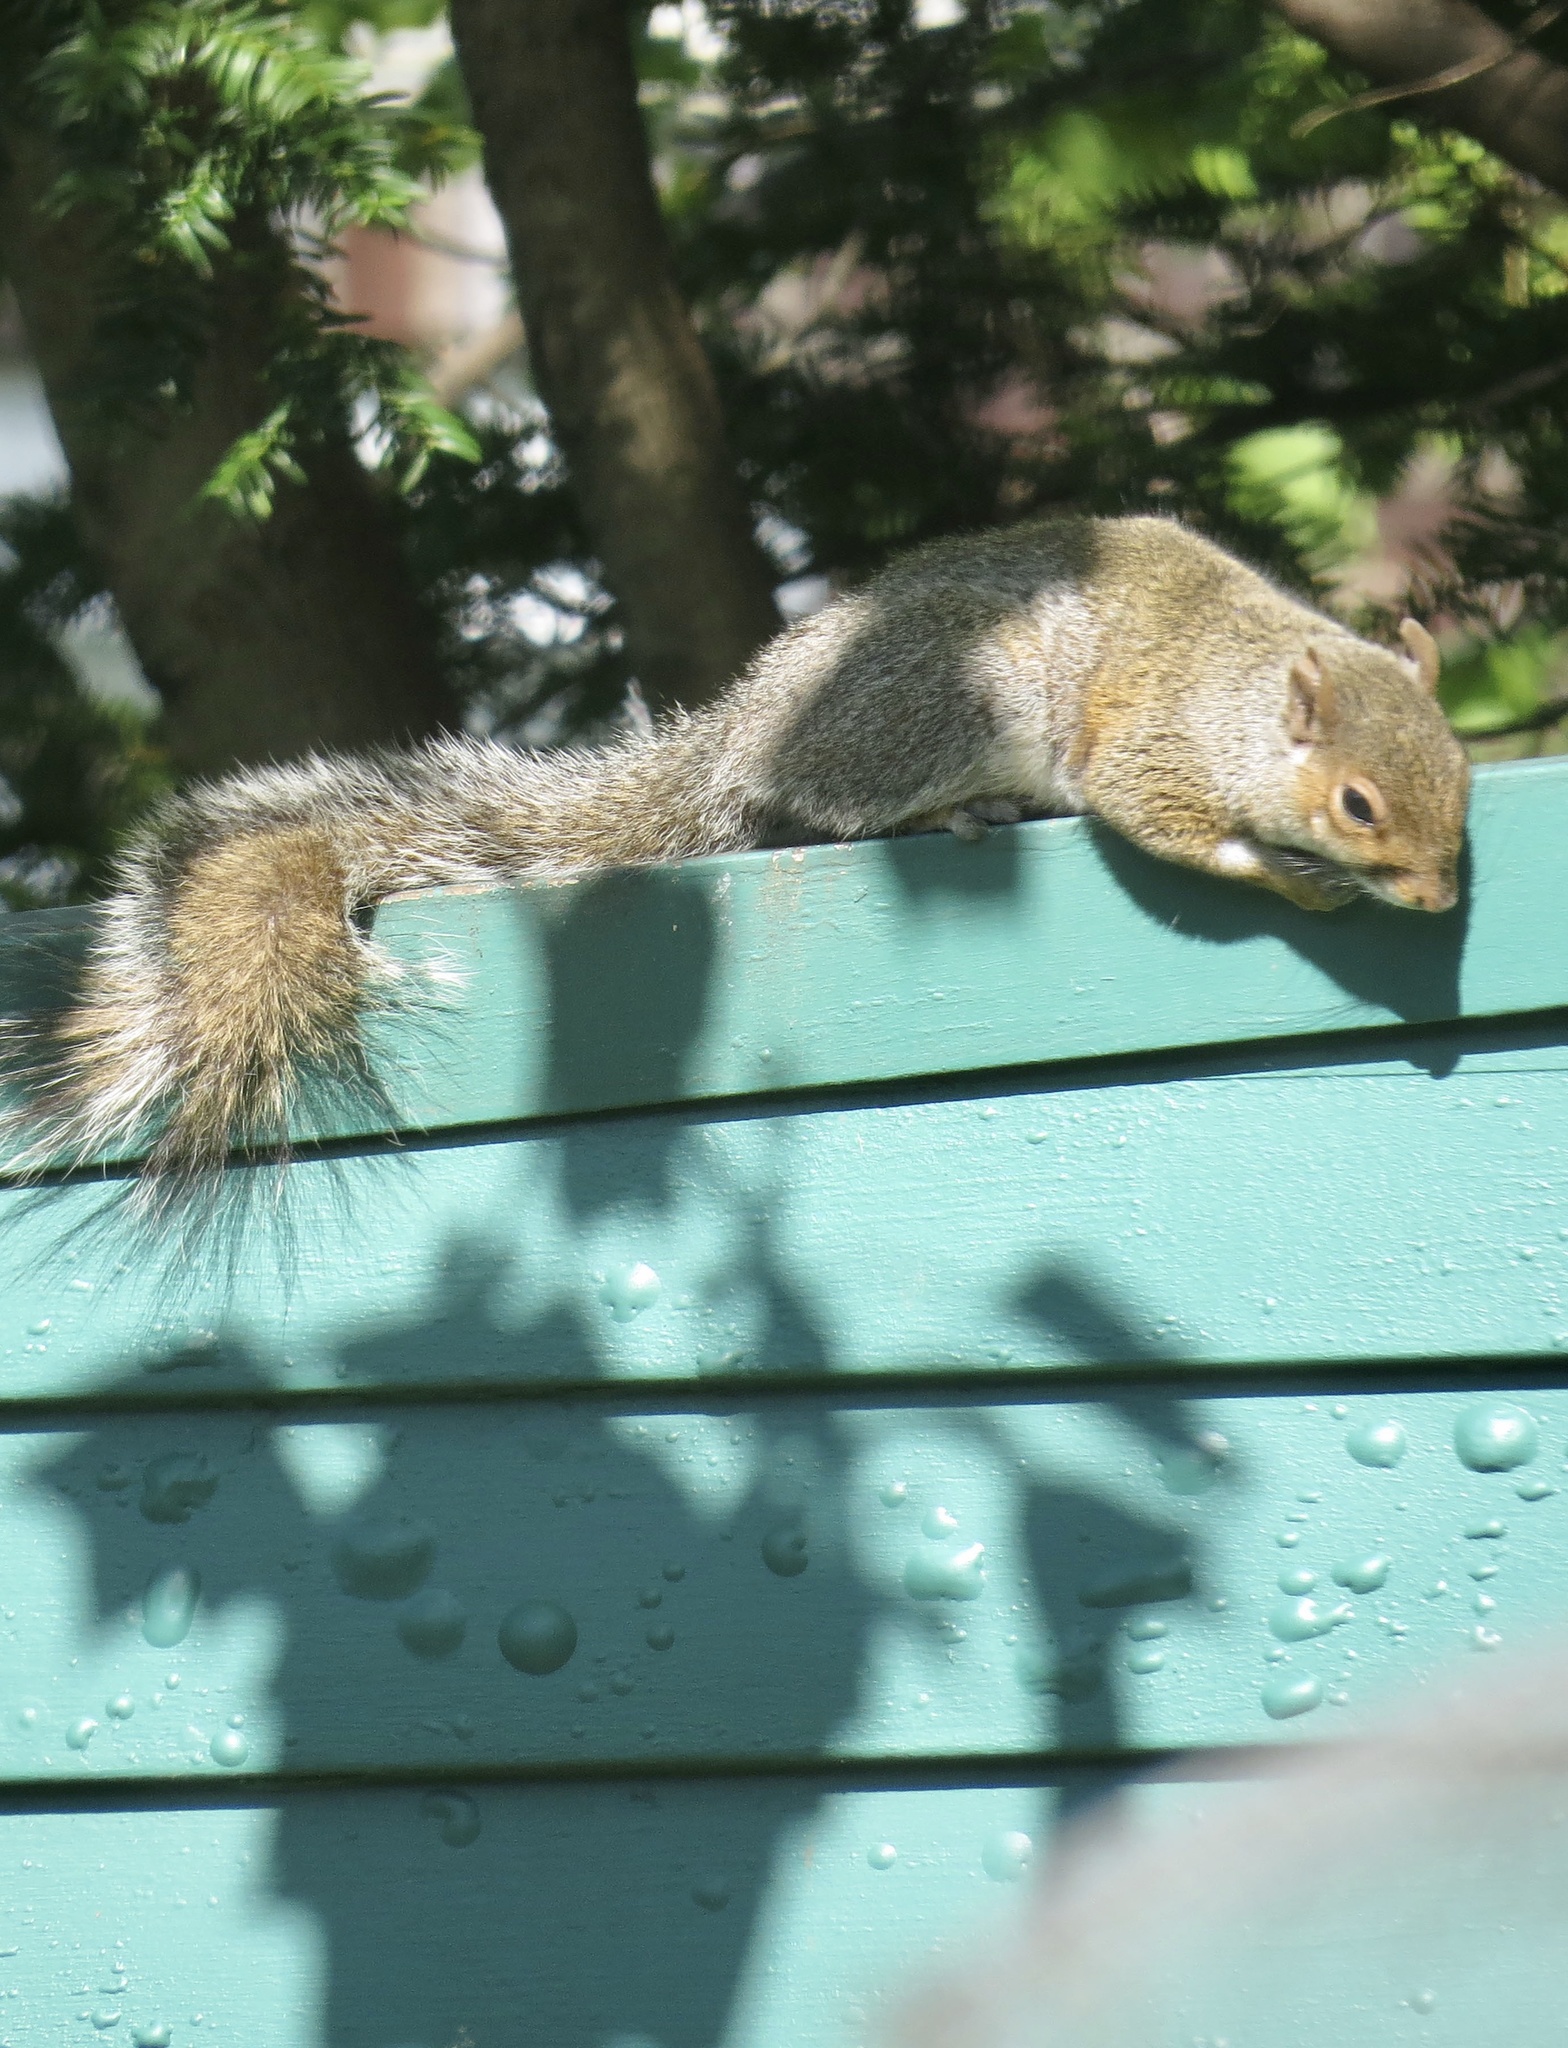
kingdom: Animalia
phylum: Chordata
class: Mammalia
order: Rodentia
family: Sciuridae
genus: Sciurus
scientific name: Sciurus carolinensis
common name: Eastern gray squirrel
